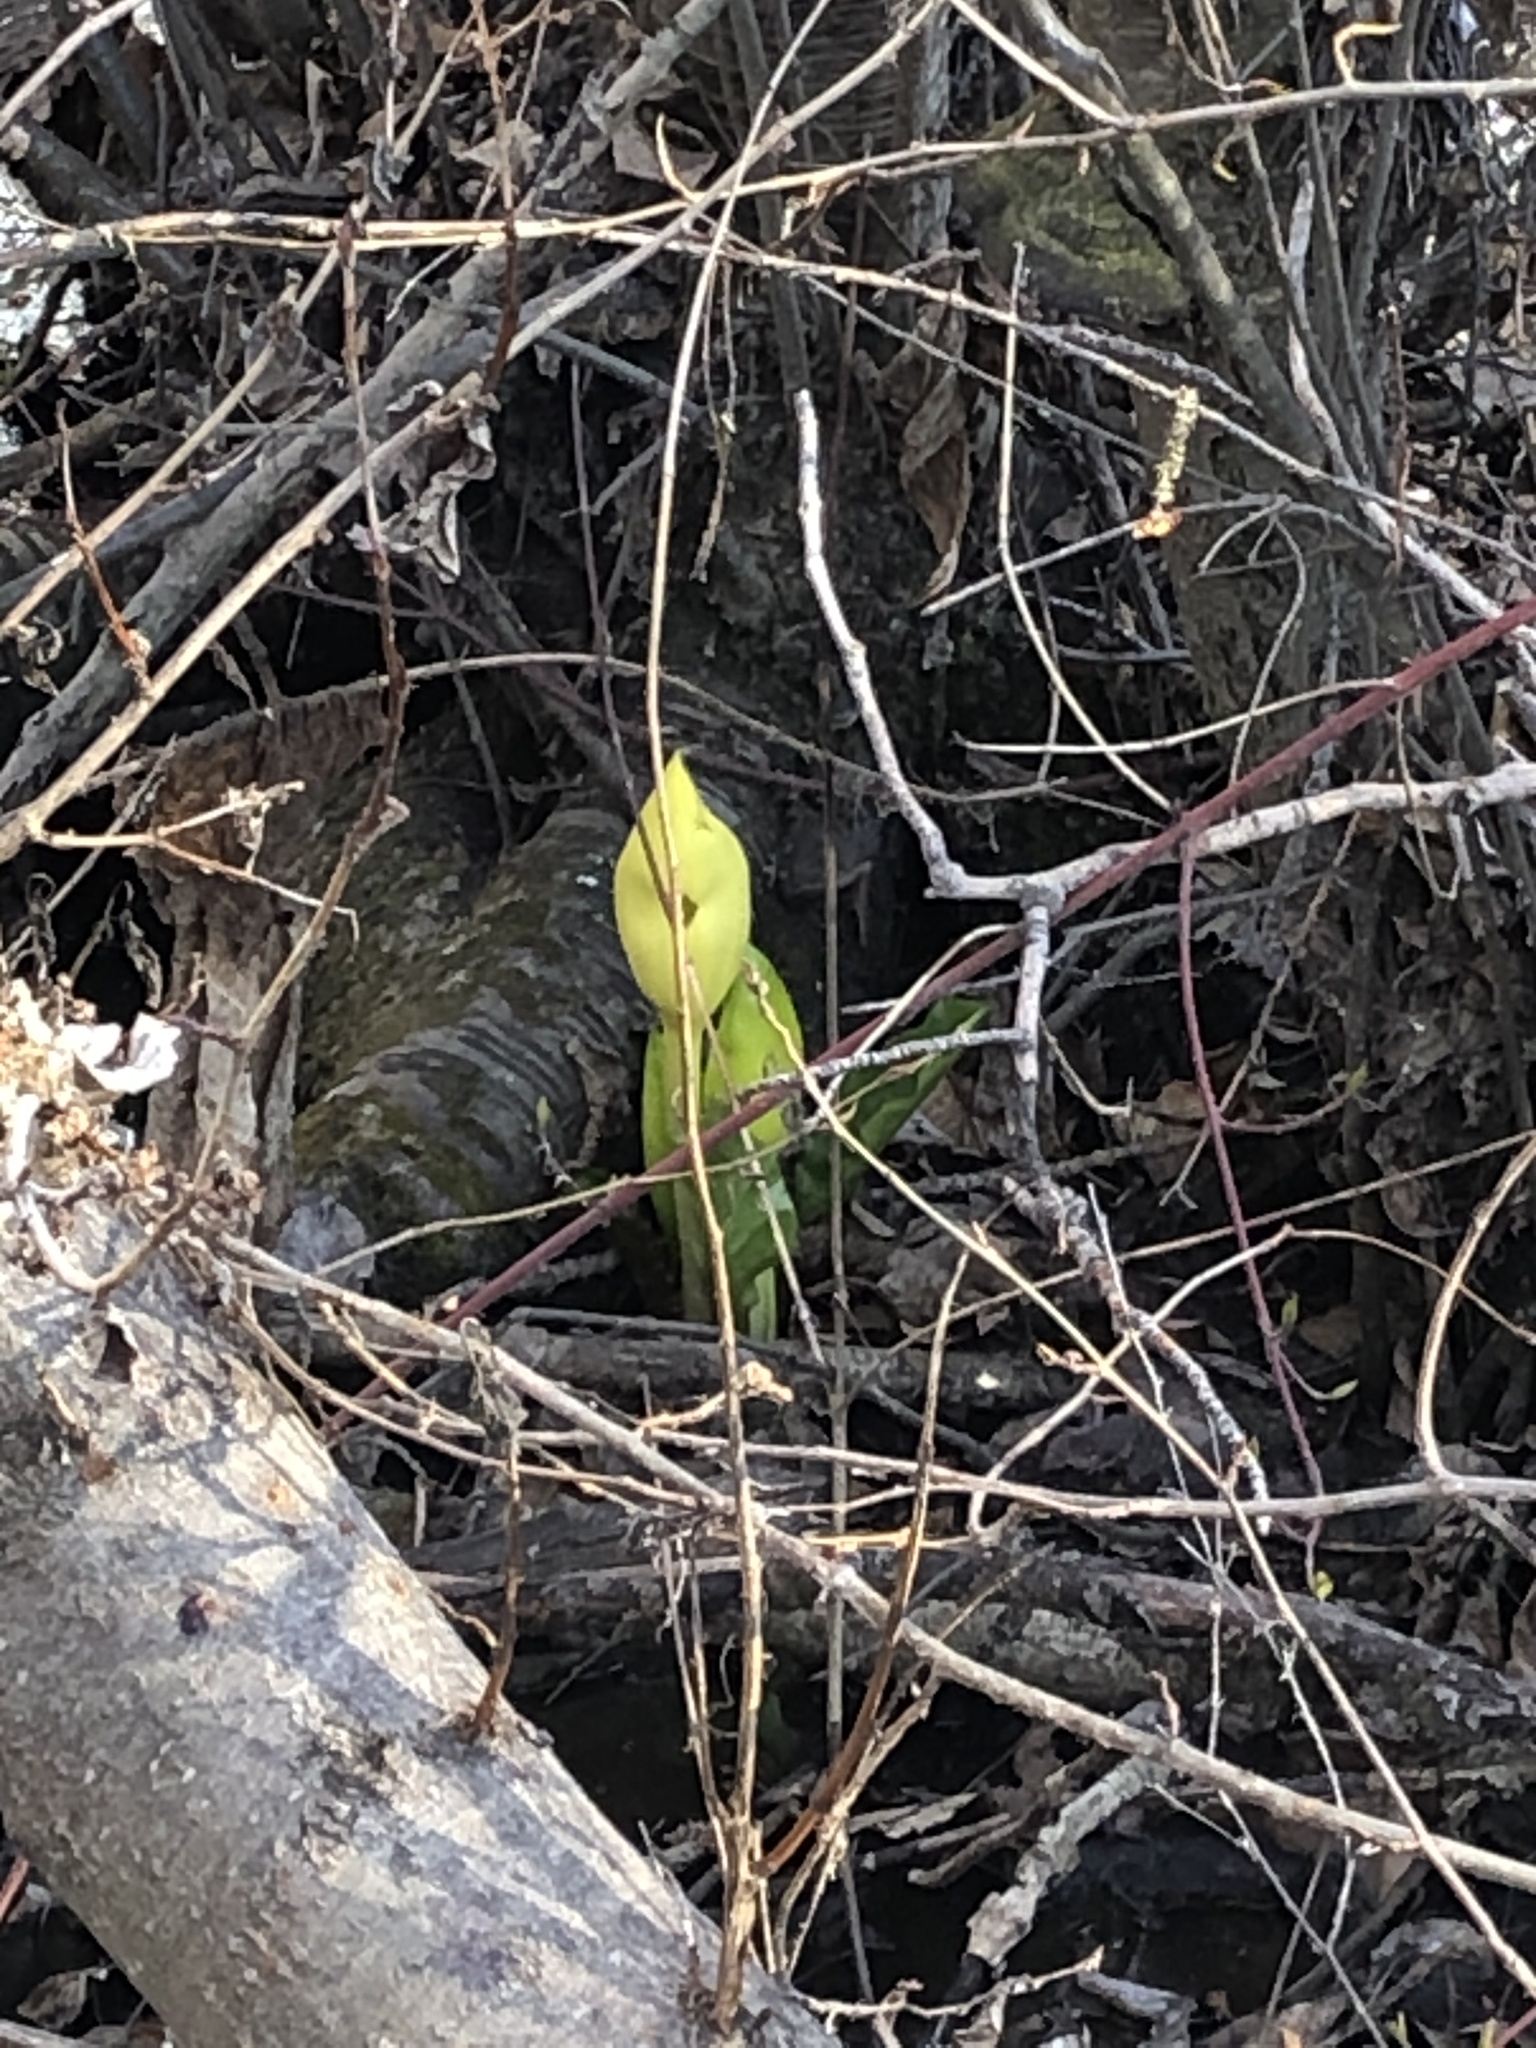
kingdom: Plantae
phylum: Tracheophyta
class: Liliopsida
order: Alismatales
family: Araceae
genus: Lysichiton
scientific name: Lysichiton americanus
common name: American skunk cabbage
